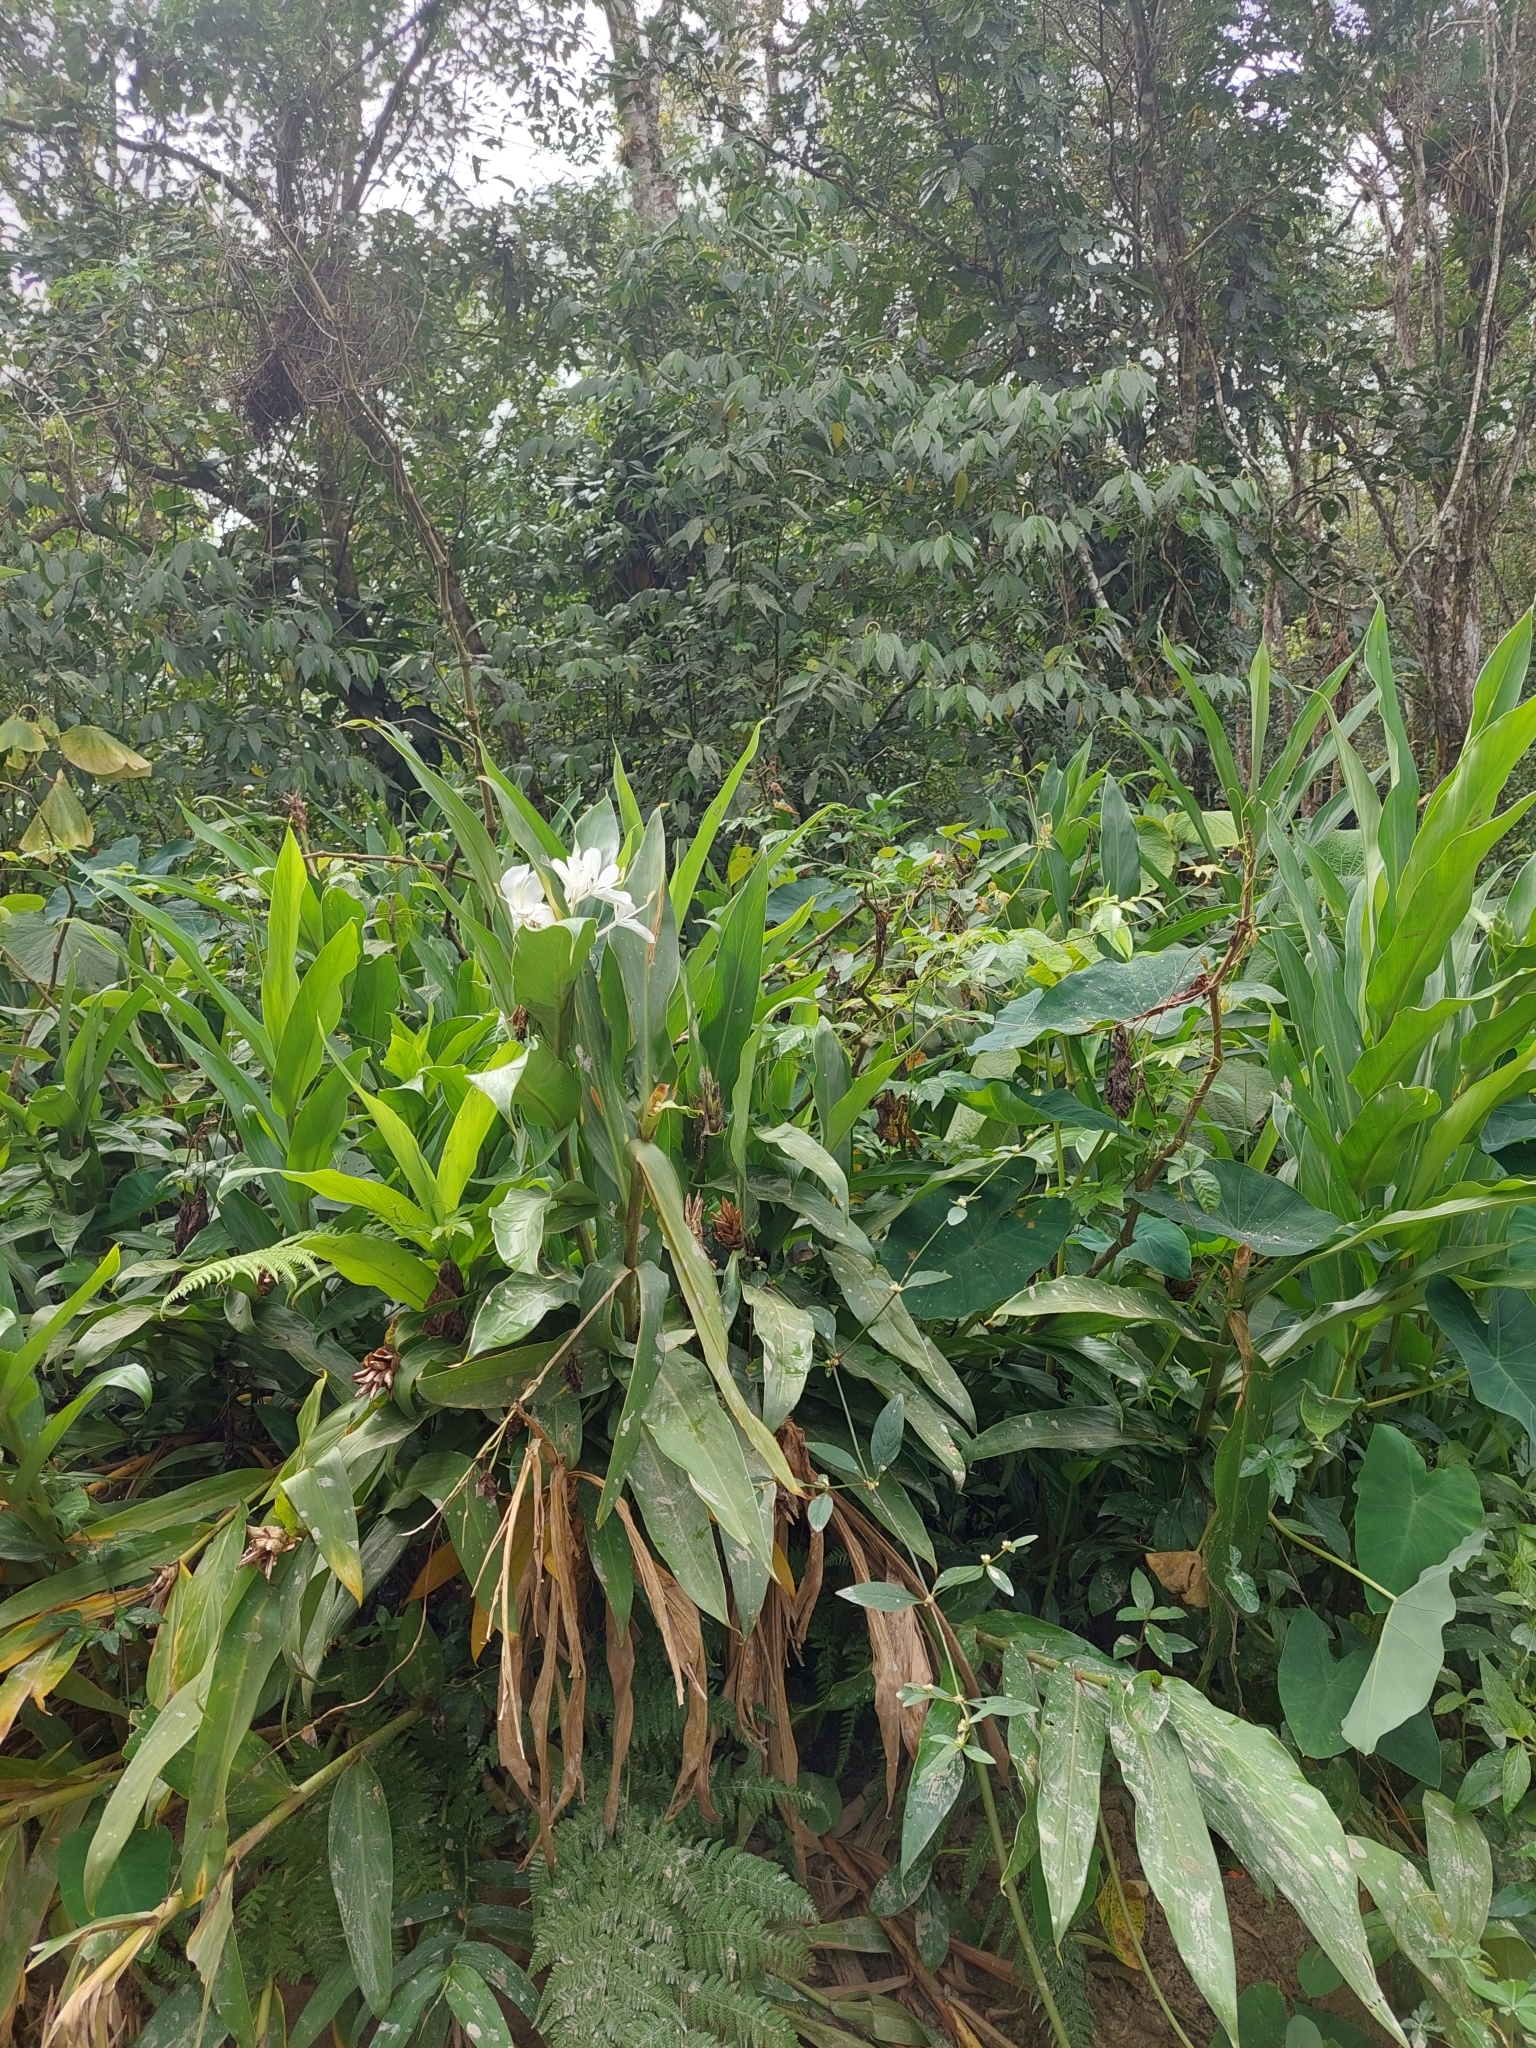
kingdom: Plantae
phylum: Tracheophyta
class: Liliopsida
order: Zingiberales
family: Zingiberaceae
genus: Hedychium
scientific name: Hedychium coronarium
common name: White garland-lily
